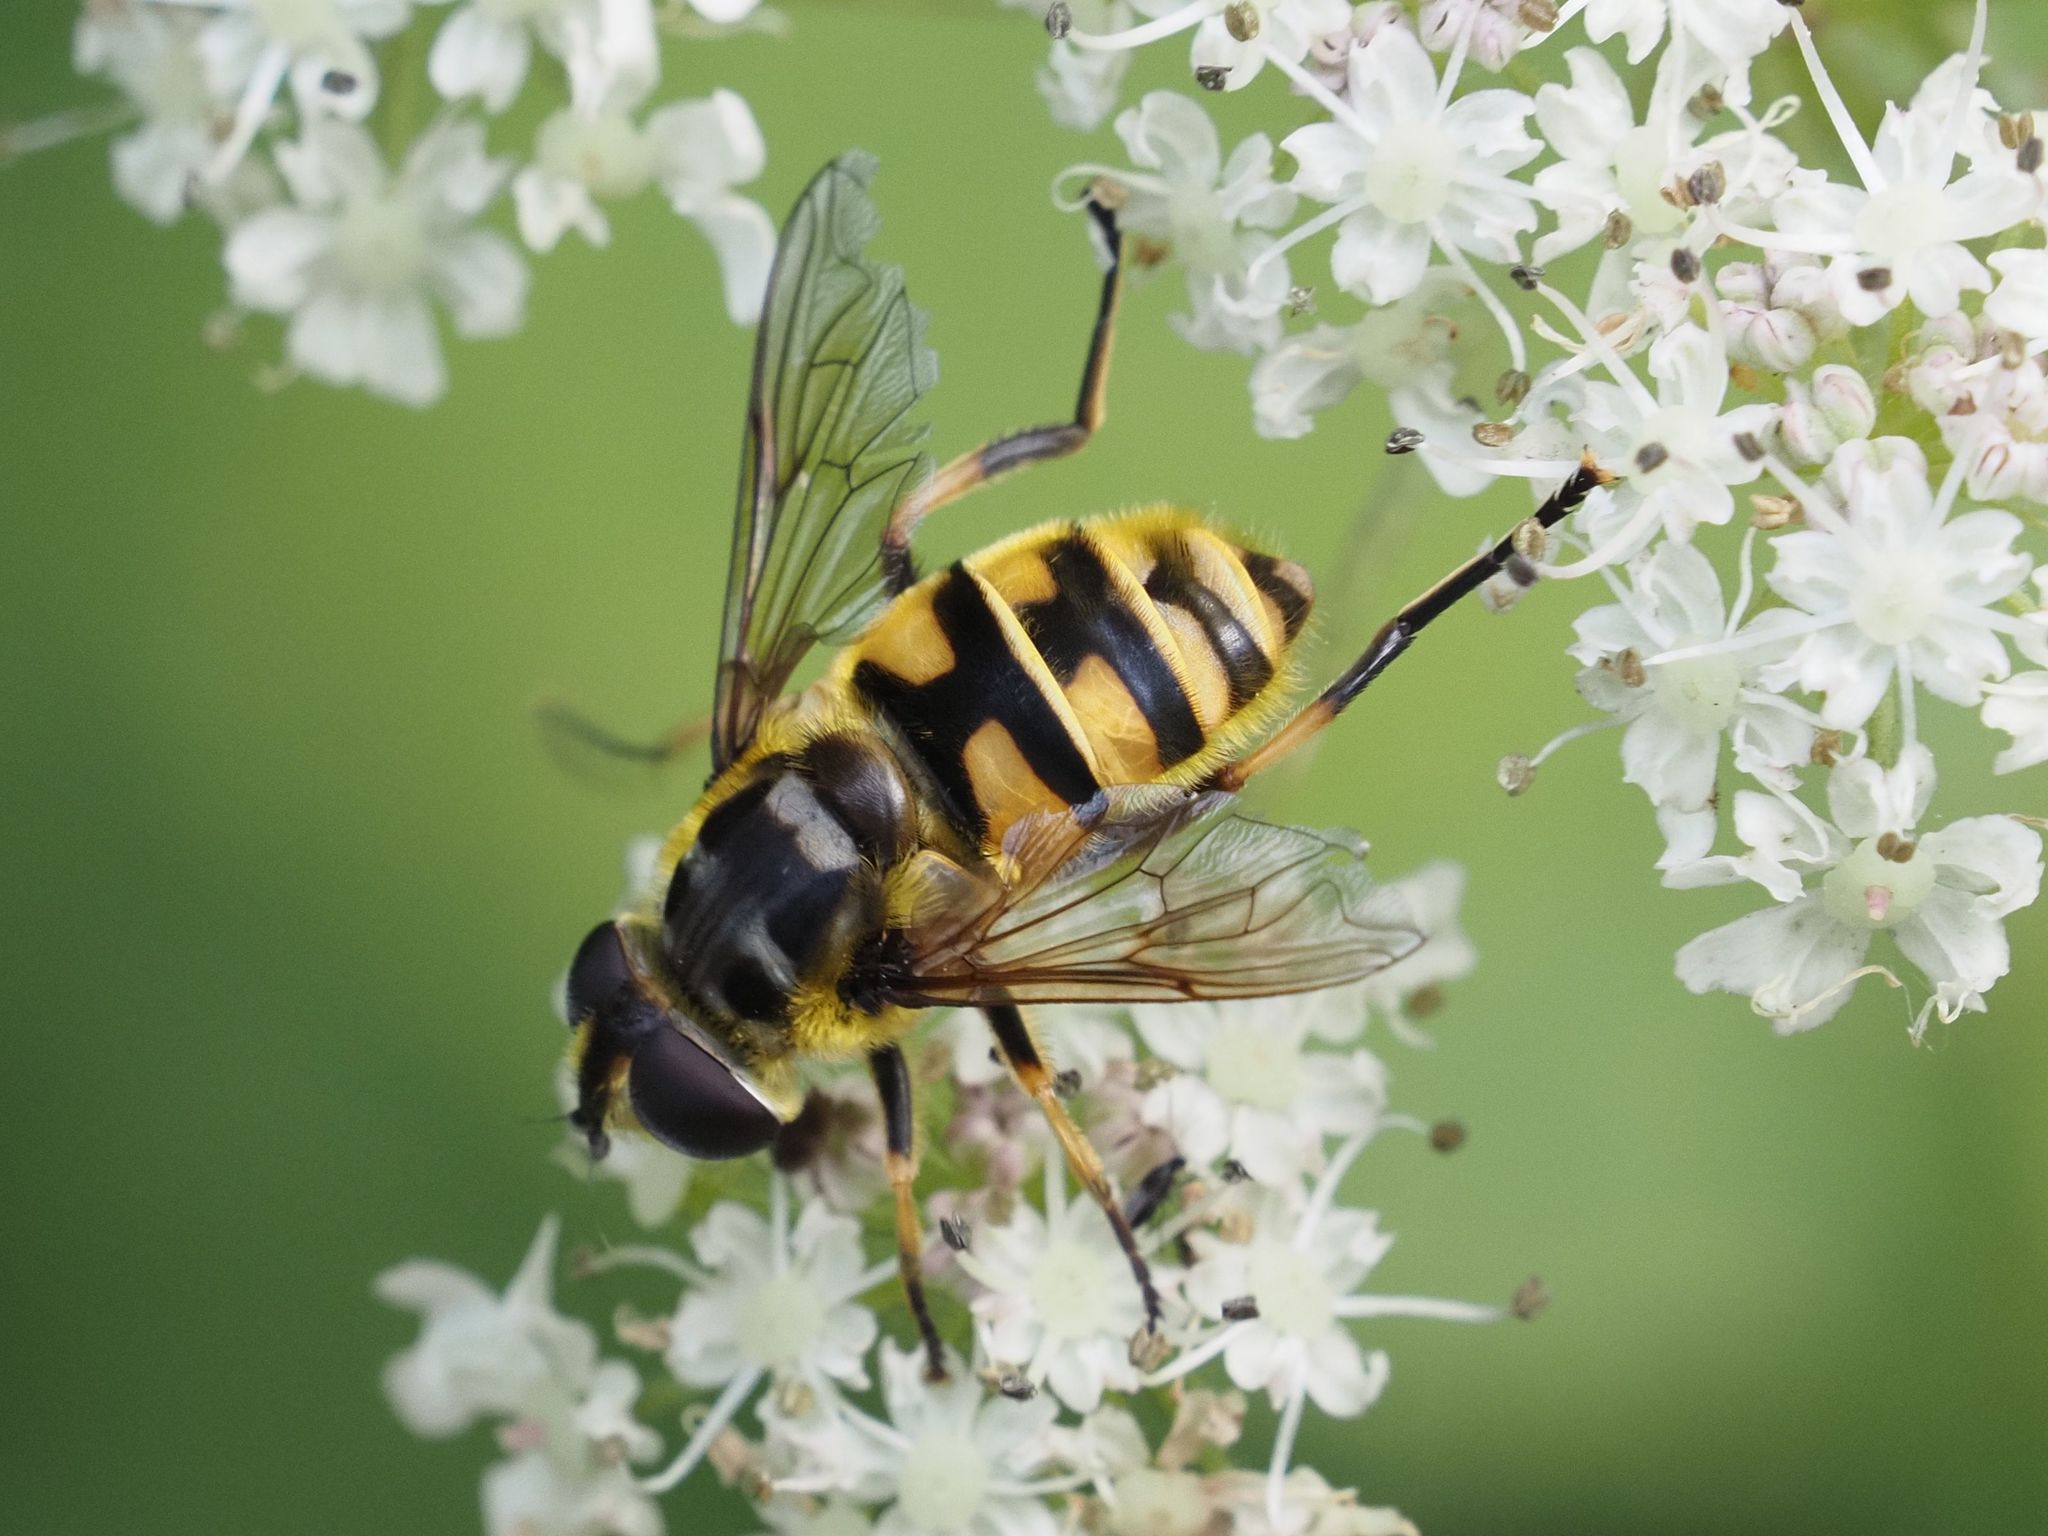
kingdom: Animalia
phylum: Arthropoda
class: Insecta
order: Diptera
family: Syrphidae
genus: Myathropa
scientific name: Myathropa florea
